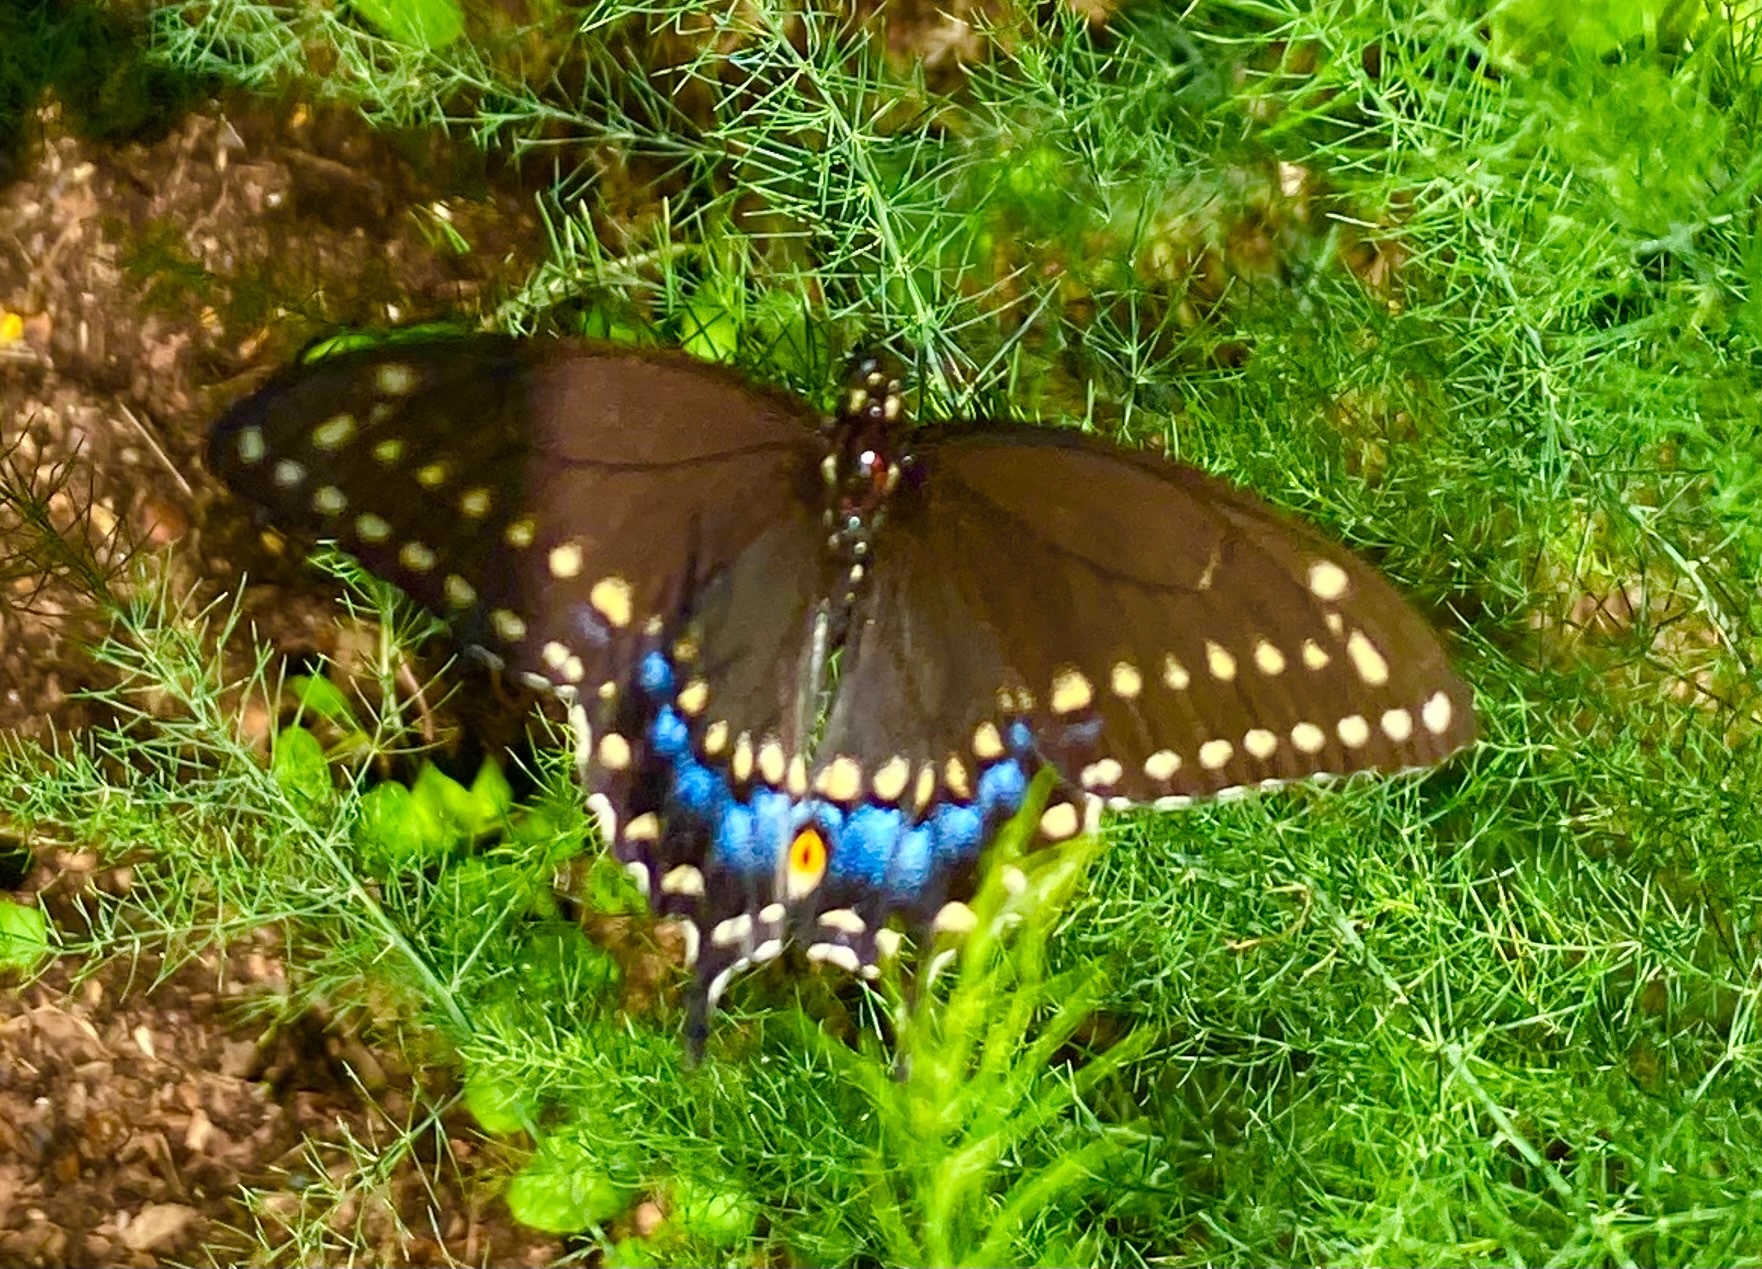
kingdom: Animalia
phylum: Arthropoda
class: Insecta
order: Lepidoptera
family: Papilionidae
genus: Papilio
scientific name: Papilio polyxenes
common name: Black swallowtail
